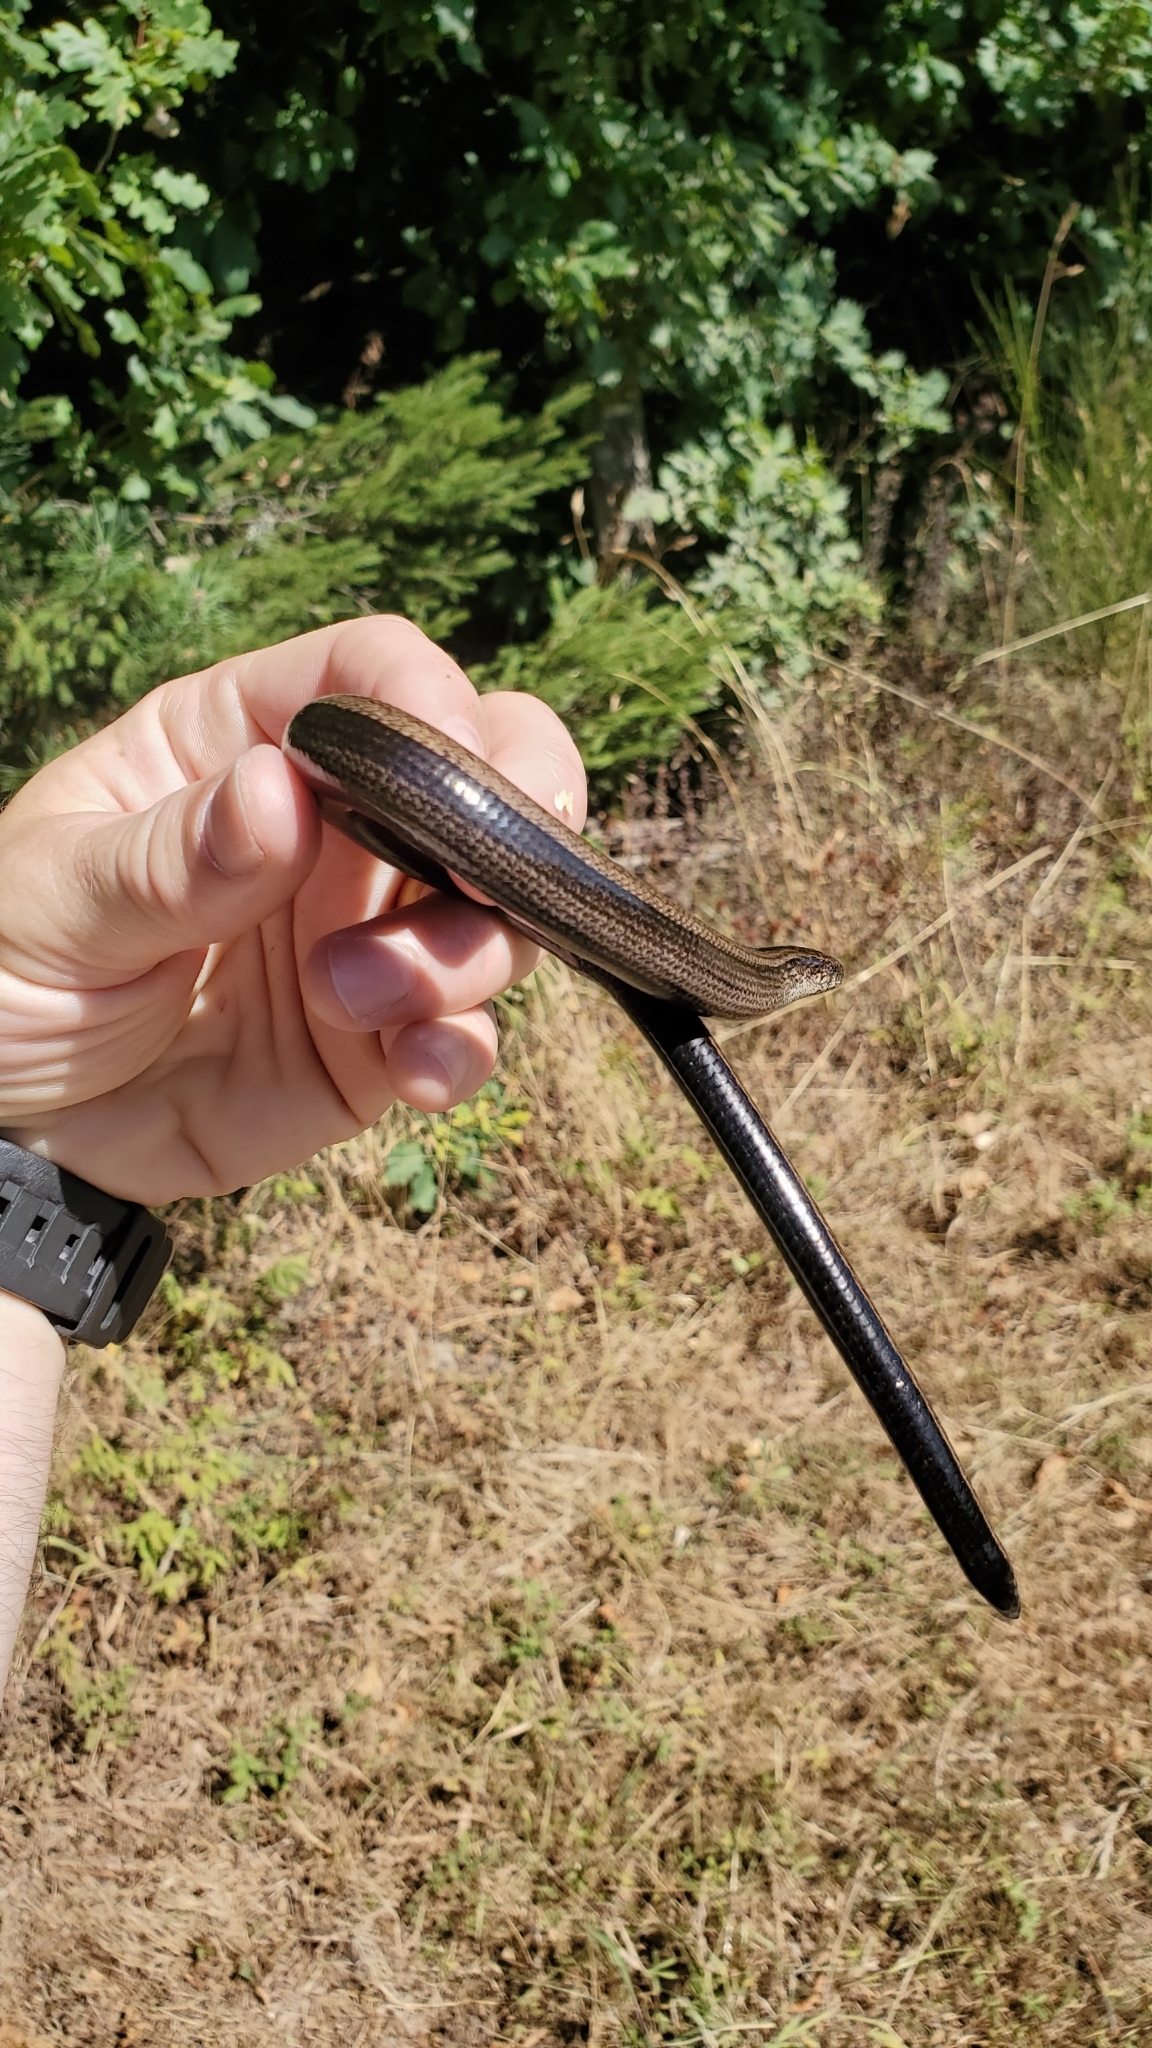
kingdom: Animalia
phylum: Chordata
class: Squamata
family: Anguidae
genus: Anguis
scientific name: Anguis fragilis
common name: Slow worm
